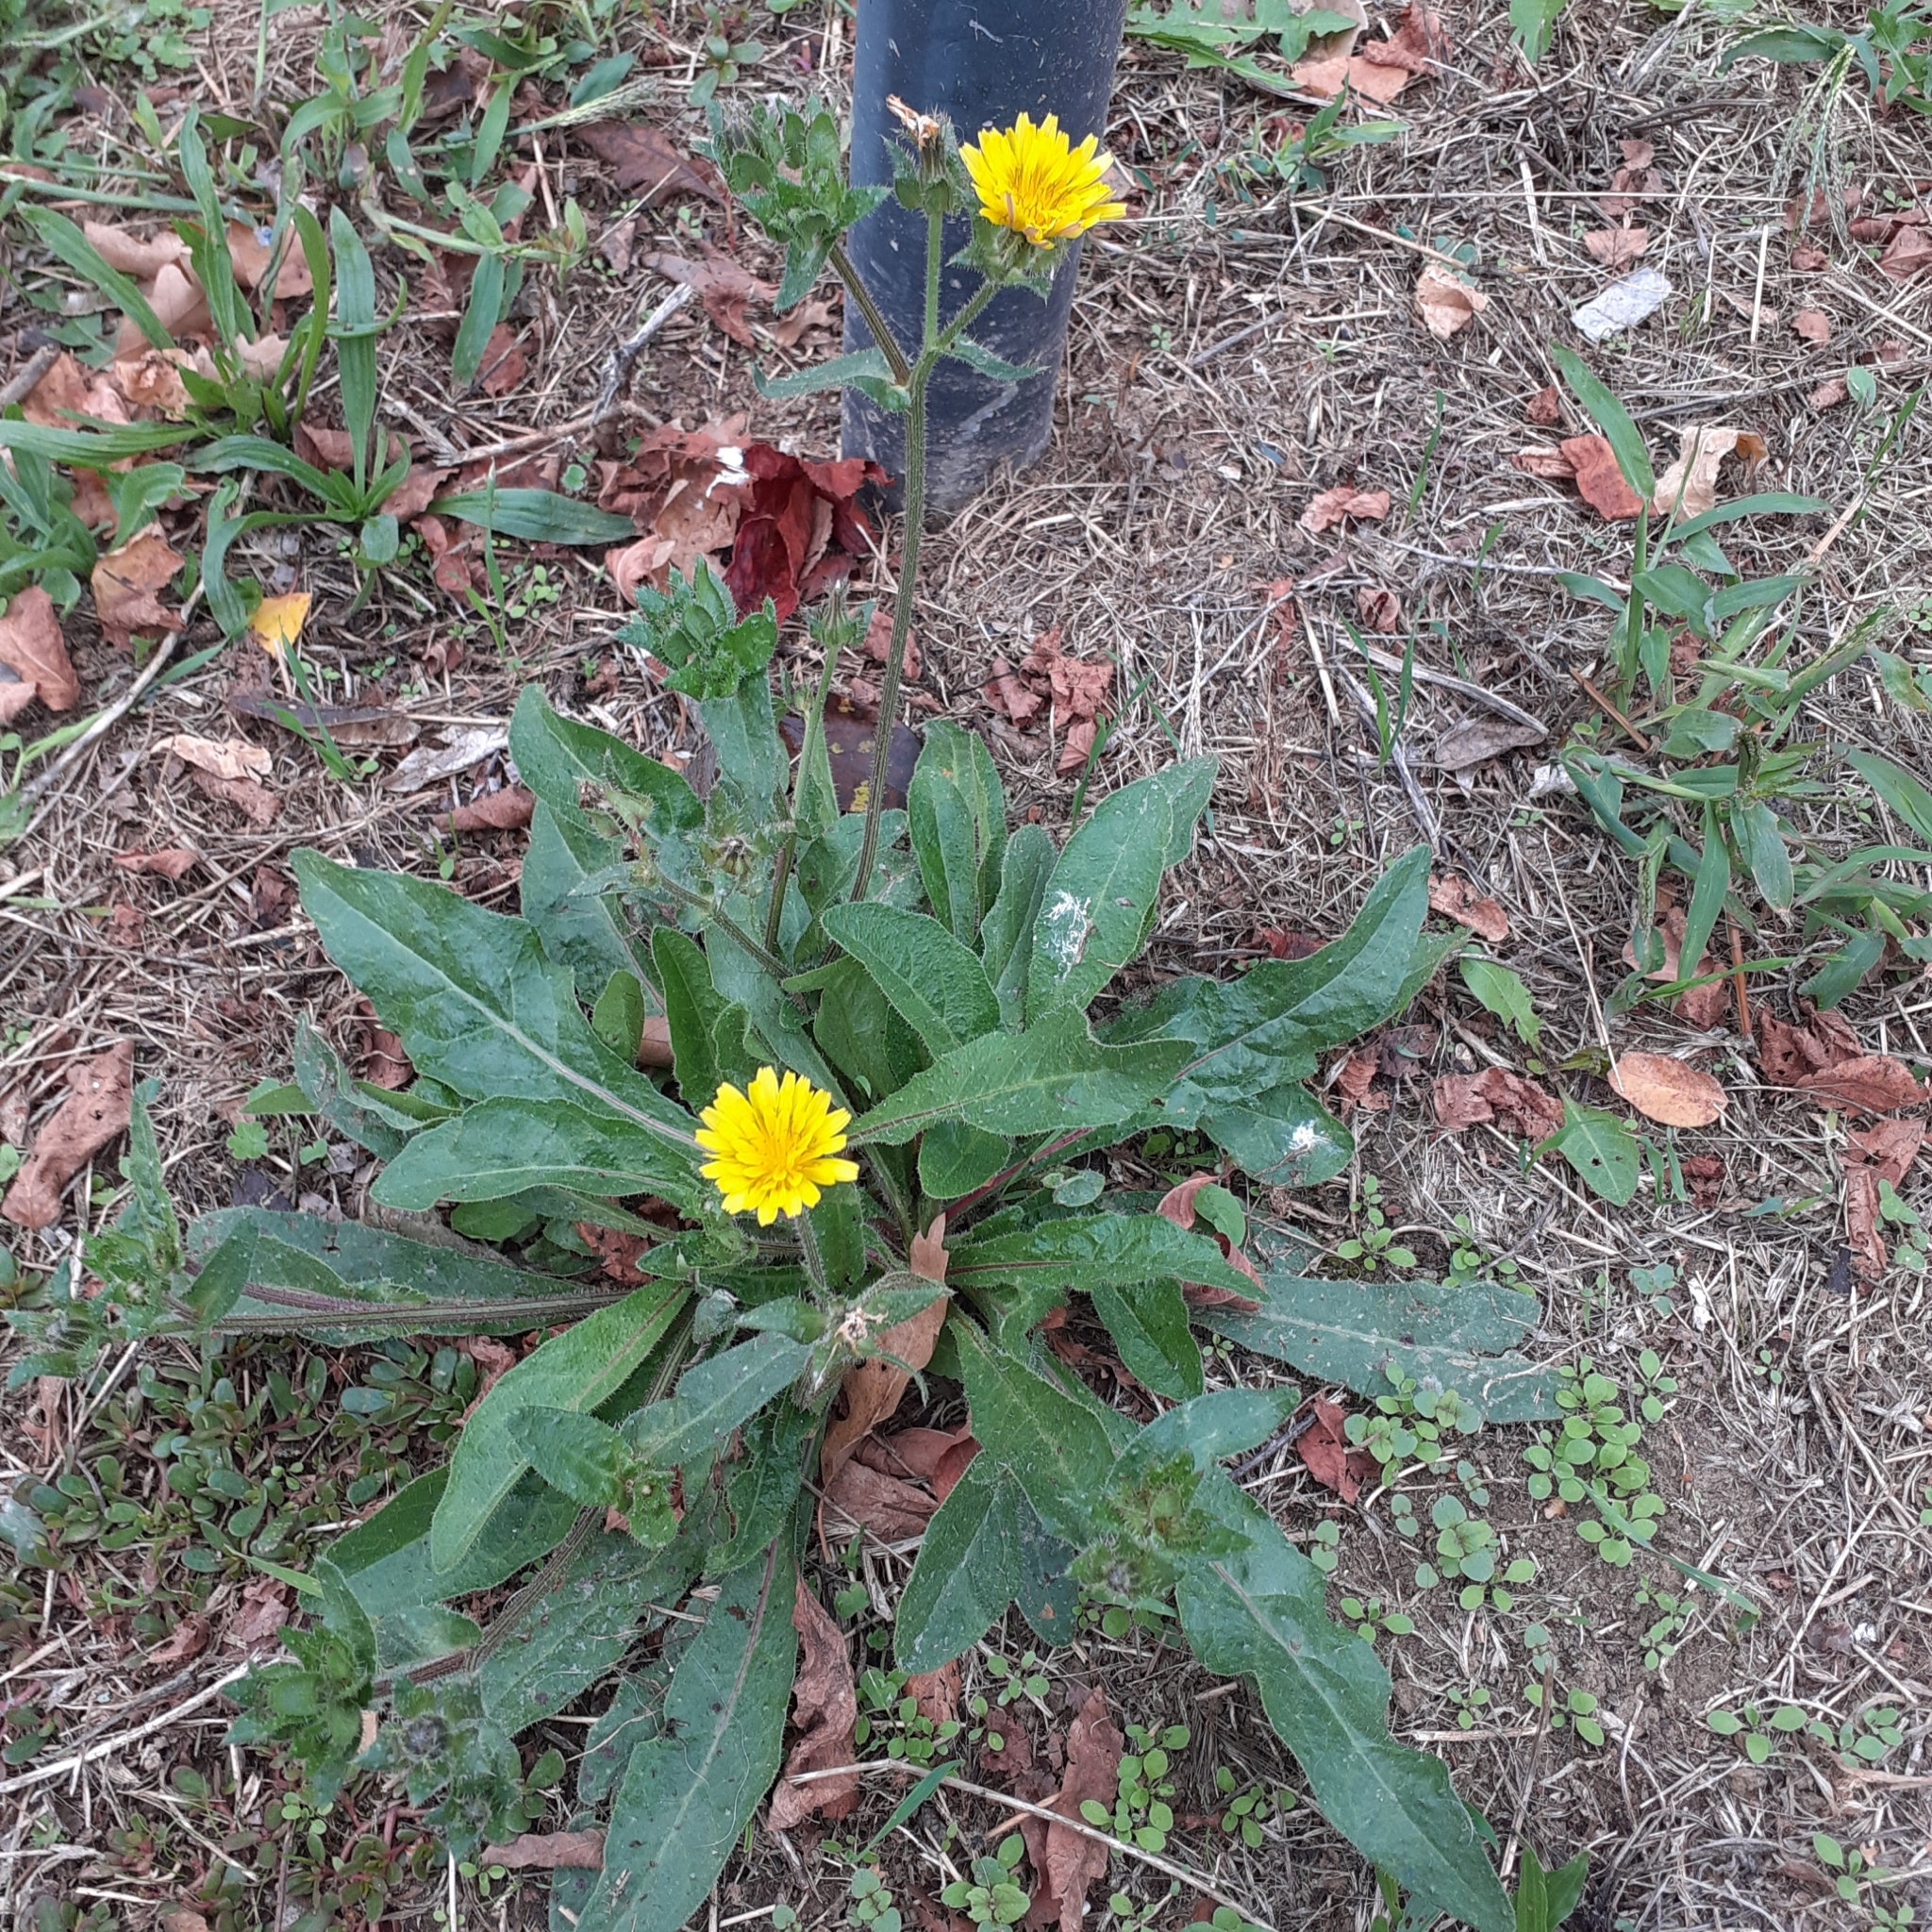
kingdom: Plantae
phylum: Tracheophyta
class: Magnoliopsida
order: Asterales
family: Asteraceae
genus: Helminthotheca
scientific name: Helminthotheca echioides
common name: Ox-tongue
